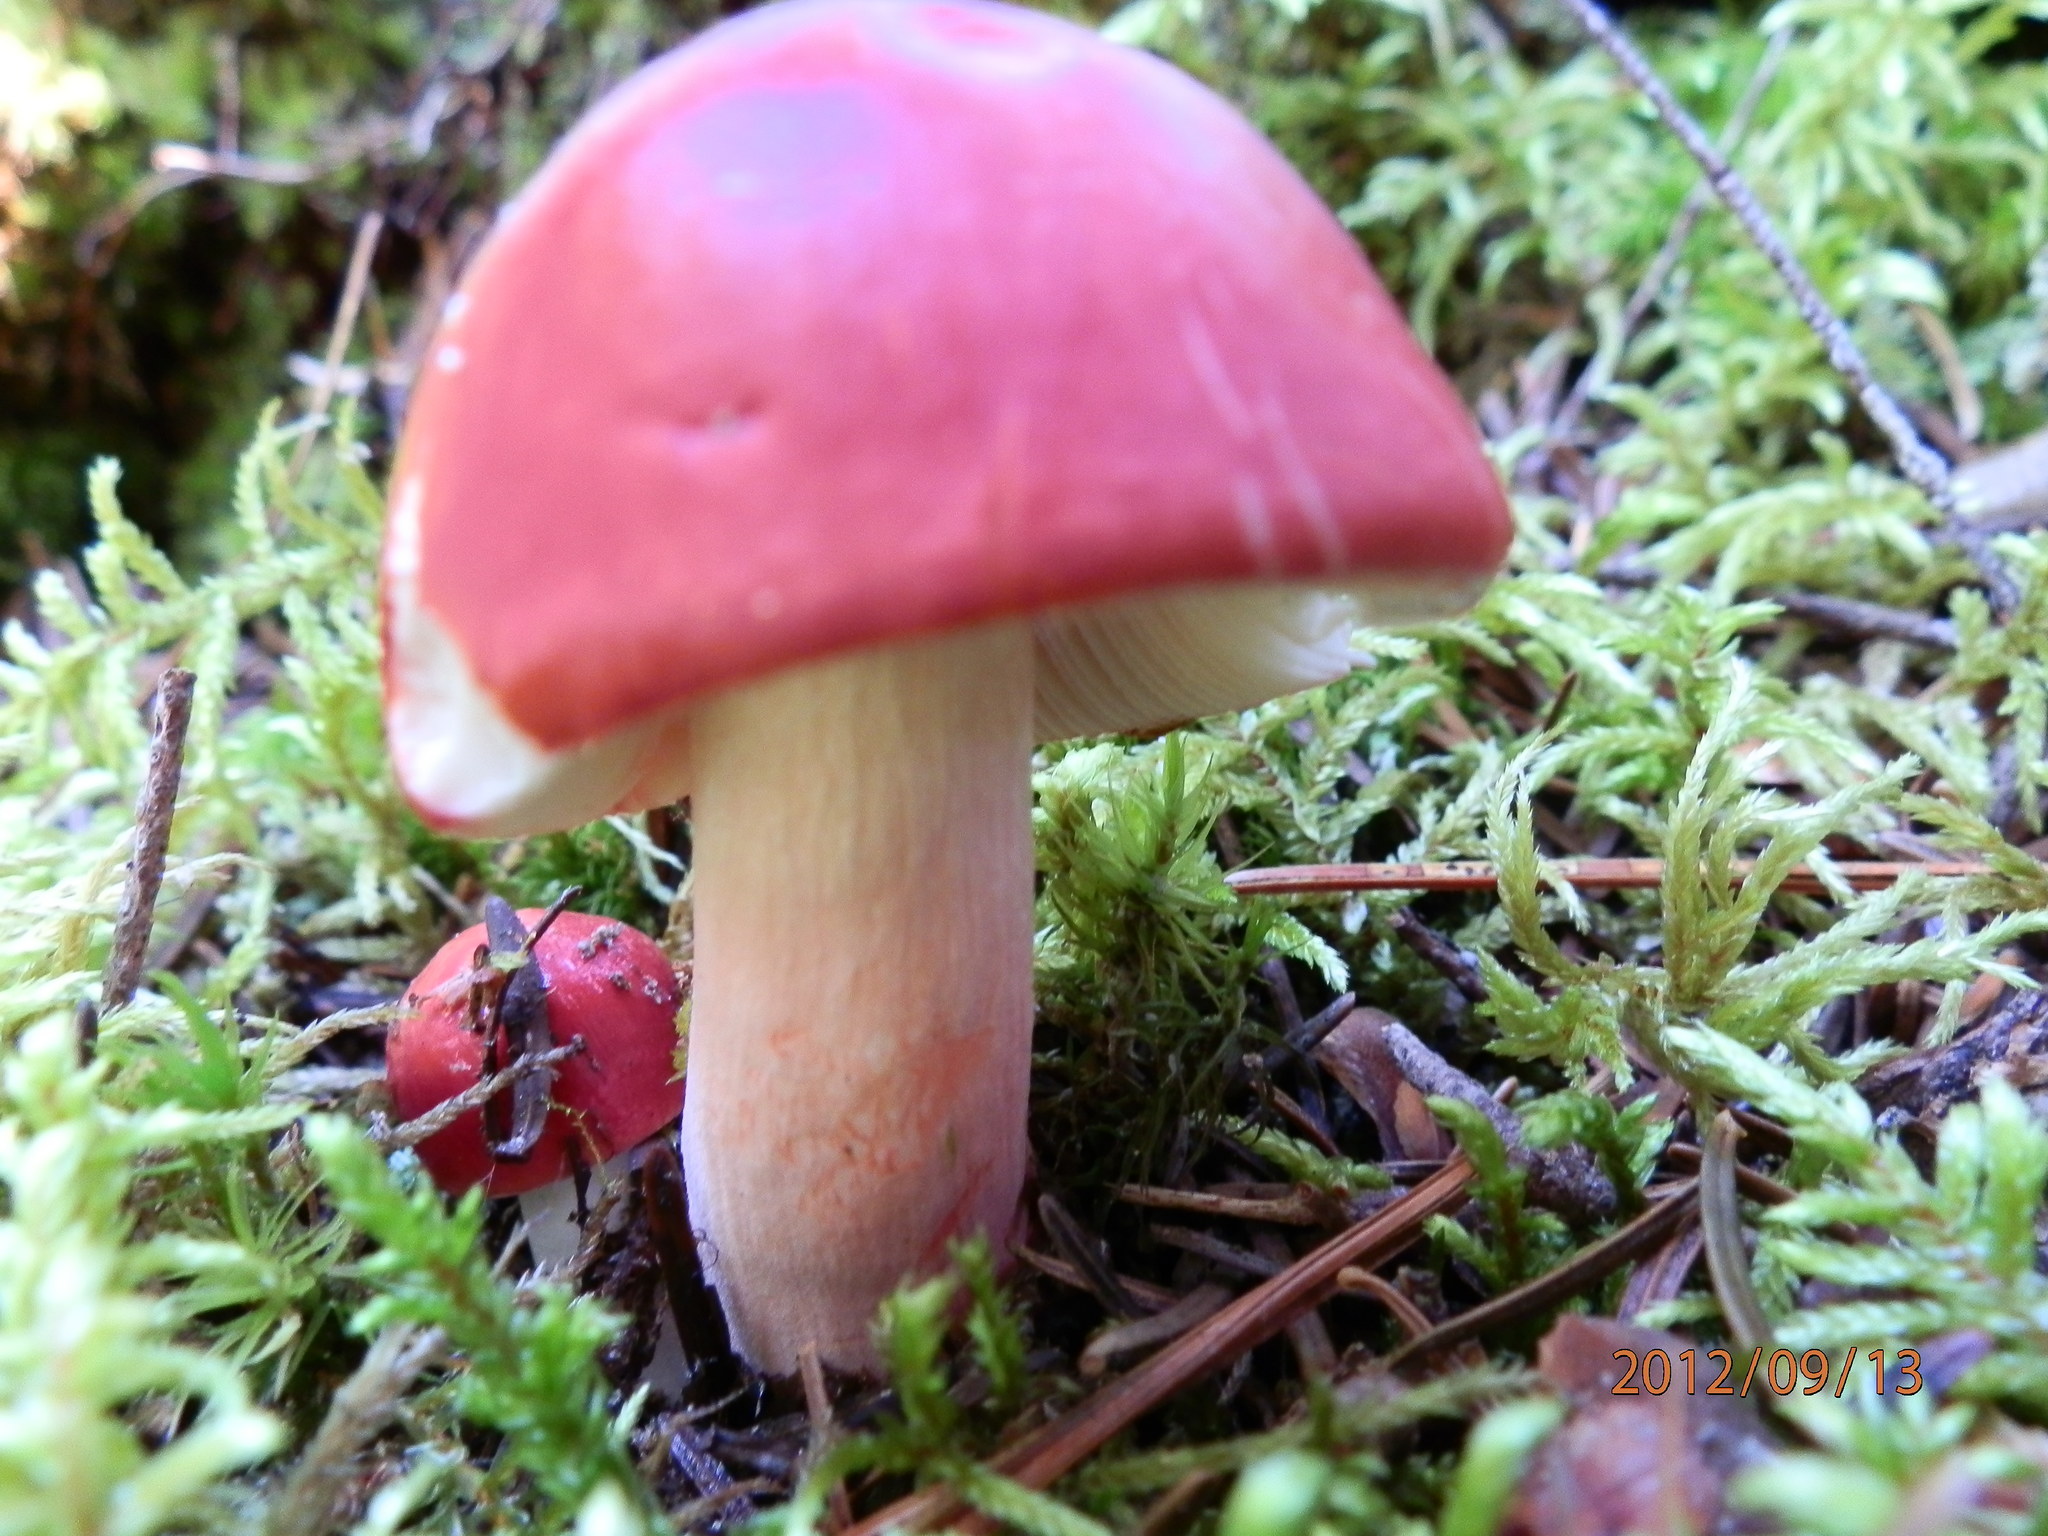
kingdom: Fungi
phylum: Basidiomycota
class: Agaricomycetes
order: Russulales
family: Russulaceae
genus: Russula
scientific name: Russula peckii
